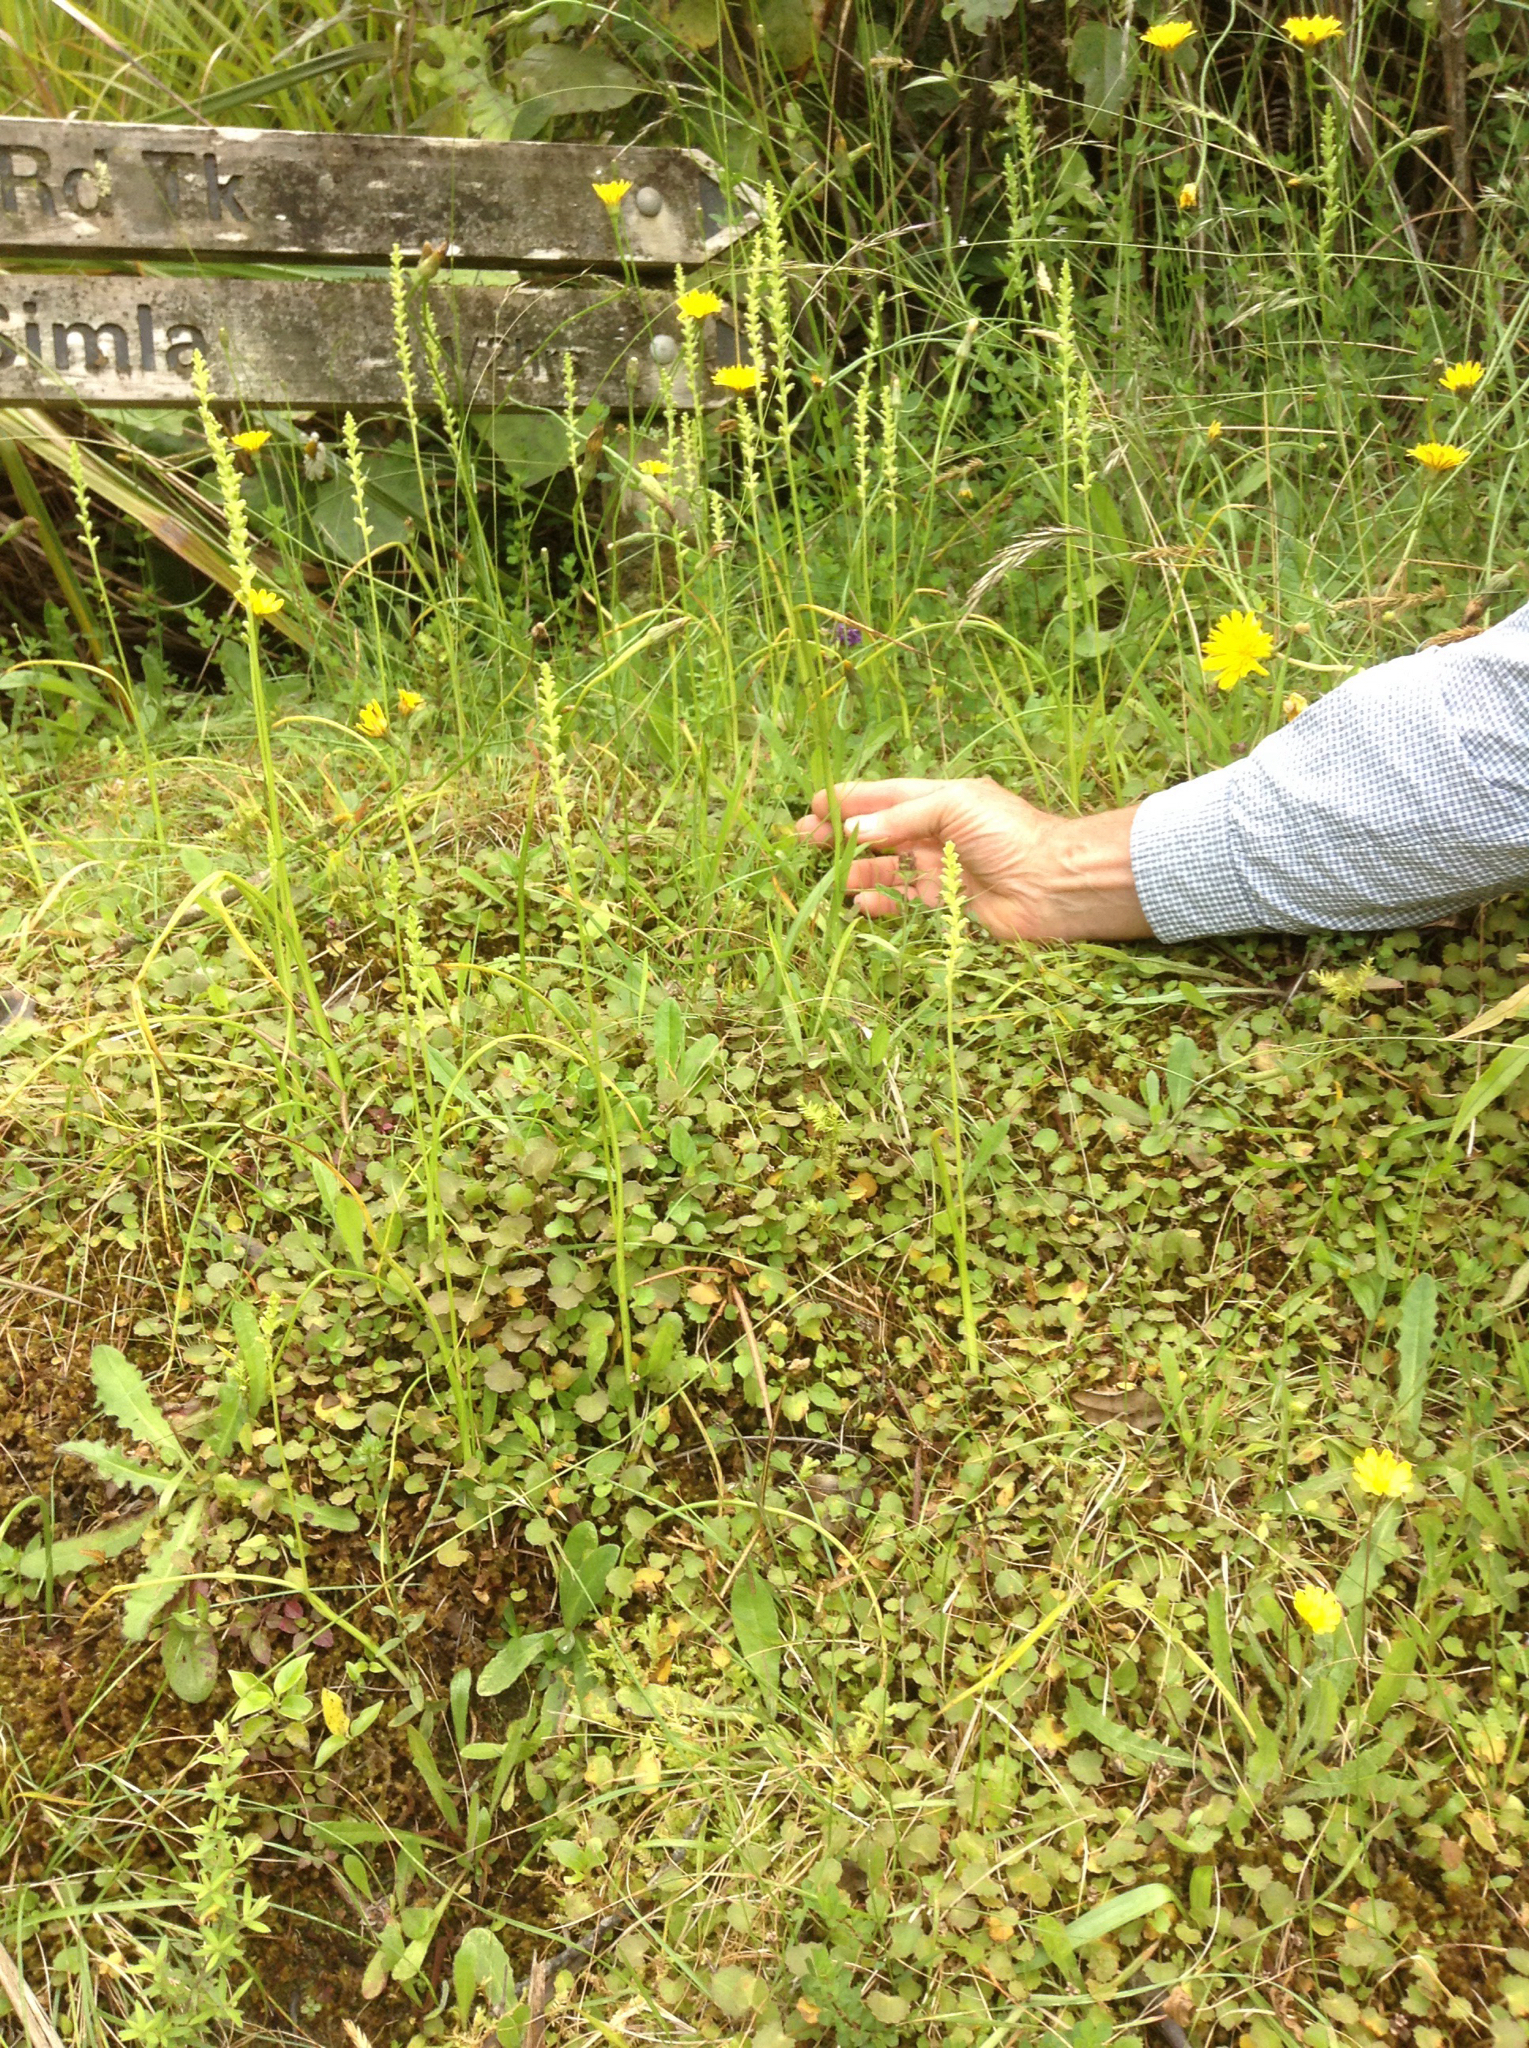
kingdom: Plantae
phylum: Tracheophyta
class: Liliopsida
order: Asparagales
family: Orchidaceae
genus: Microtis
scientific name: Microtis unifolia
